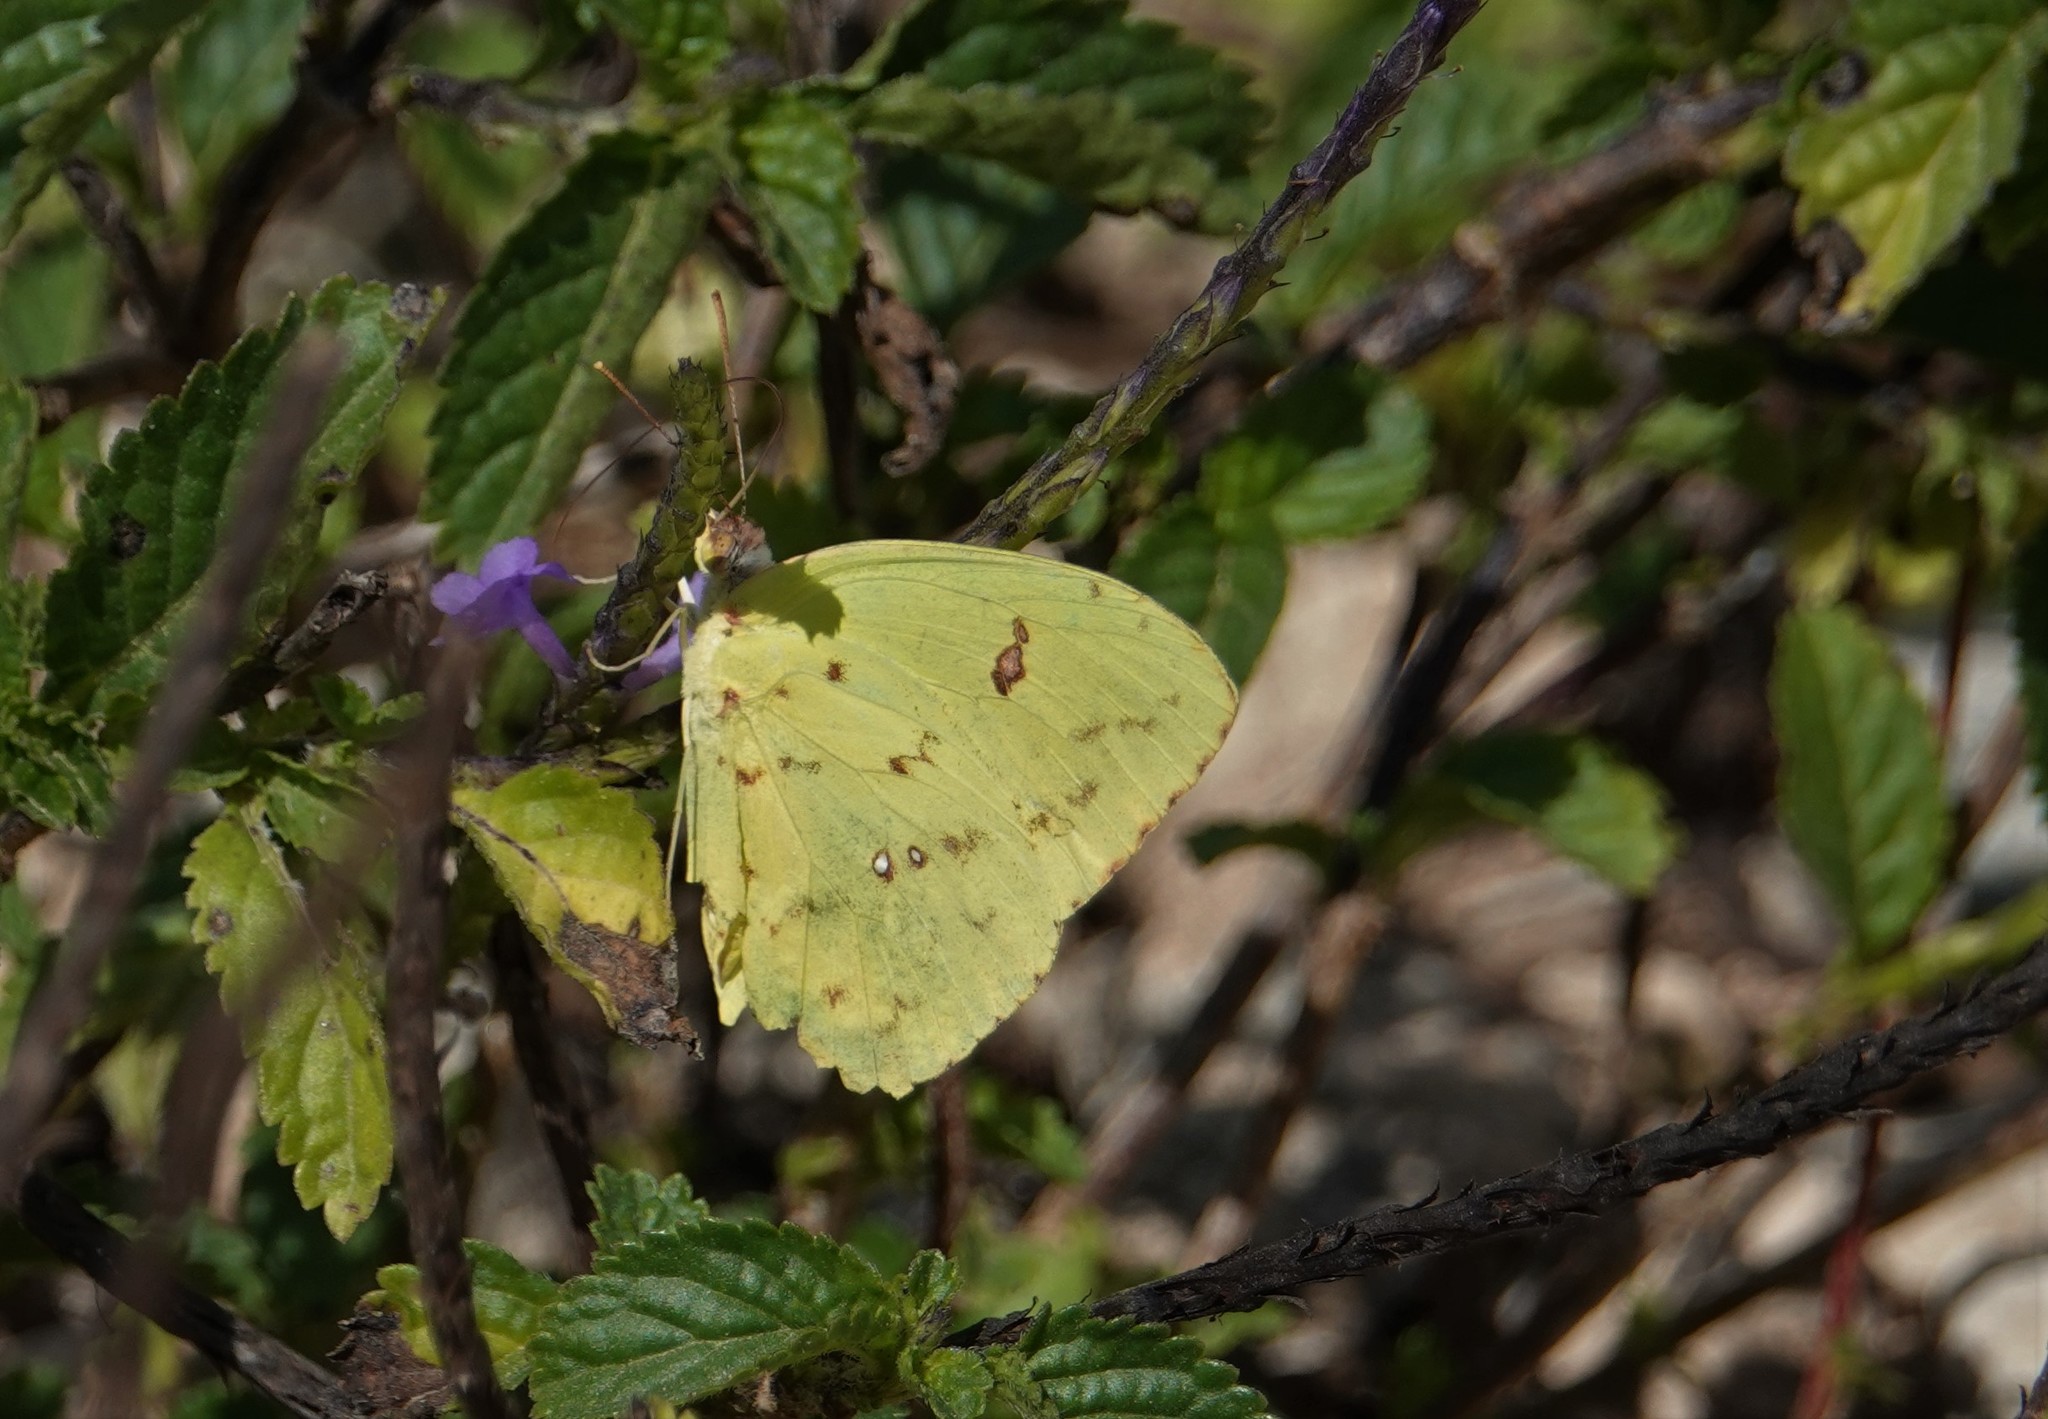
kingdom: Animalia
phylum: Arthropoda
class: Insecta
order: Lepidoptera
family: Pieridae
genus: Phoebis
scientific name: Phoebis sennae
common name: Cloudless sulphur
